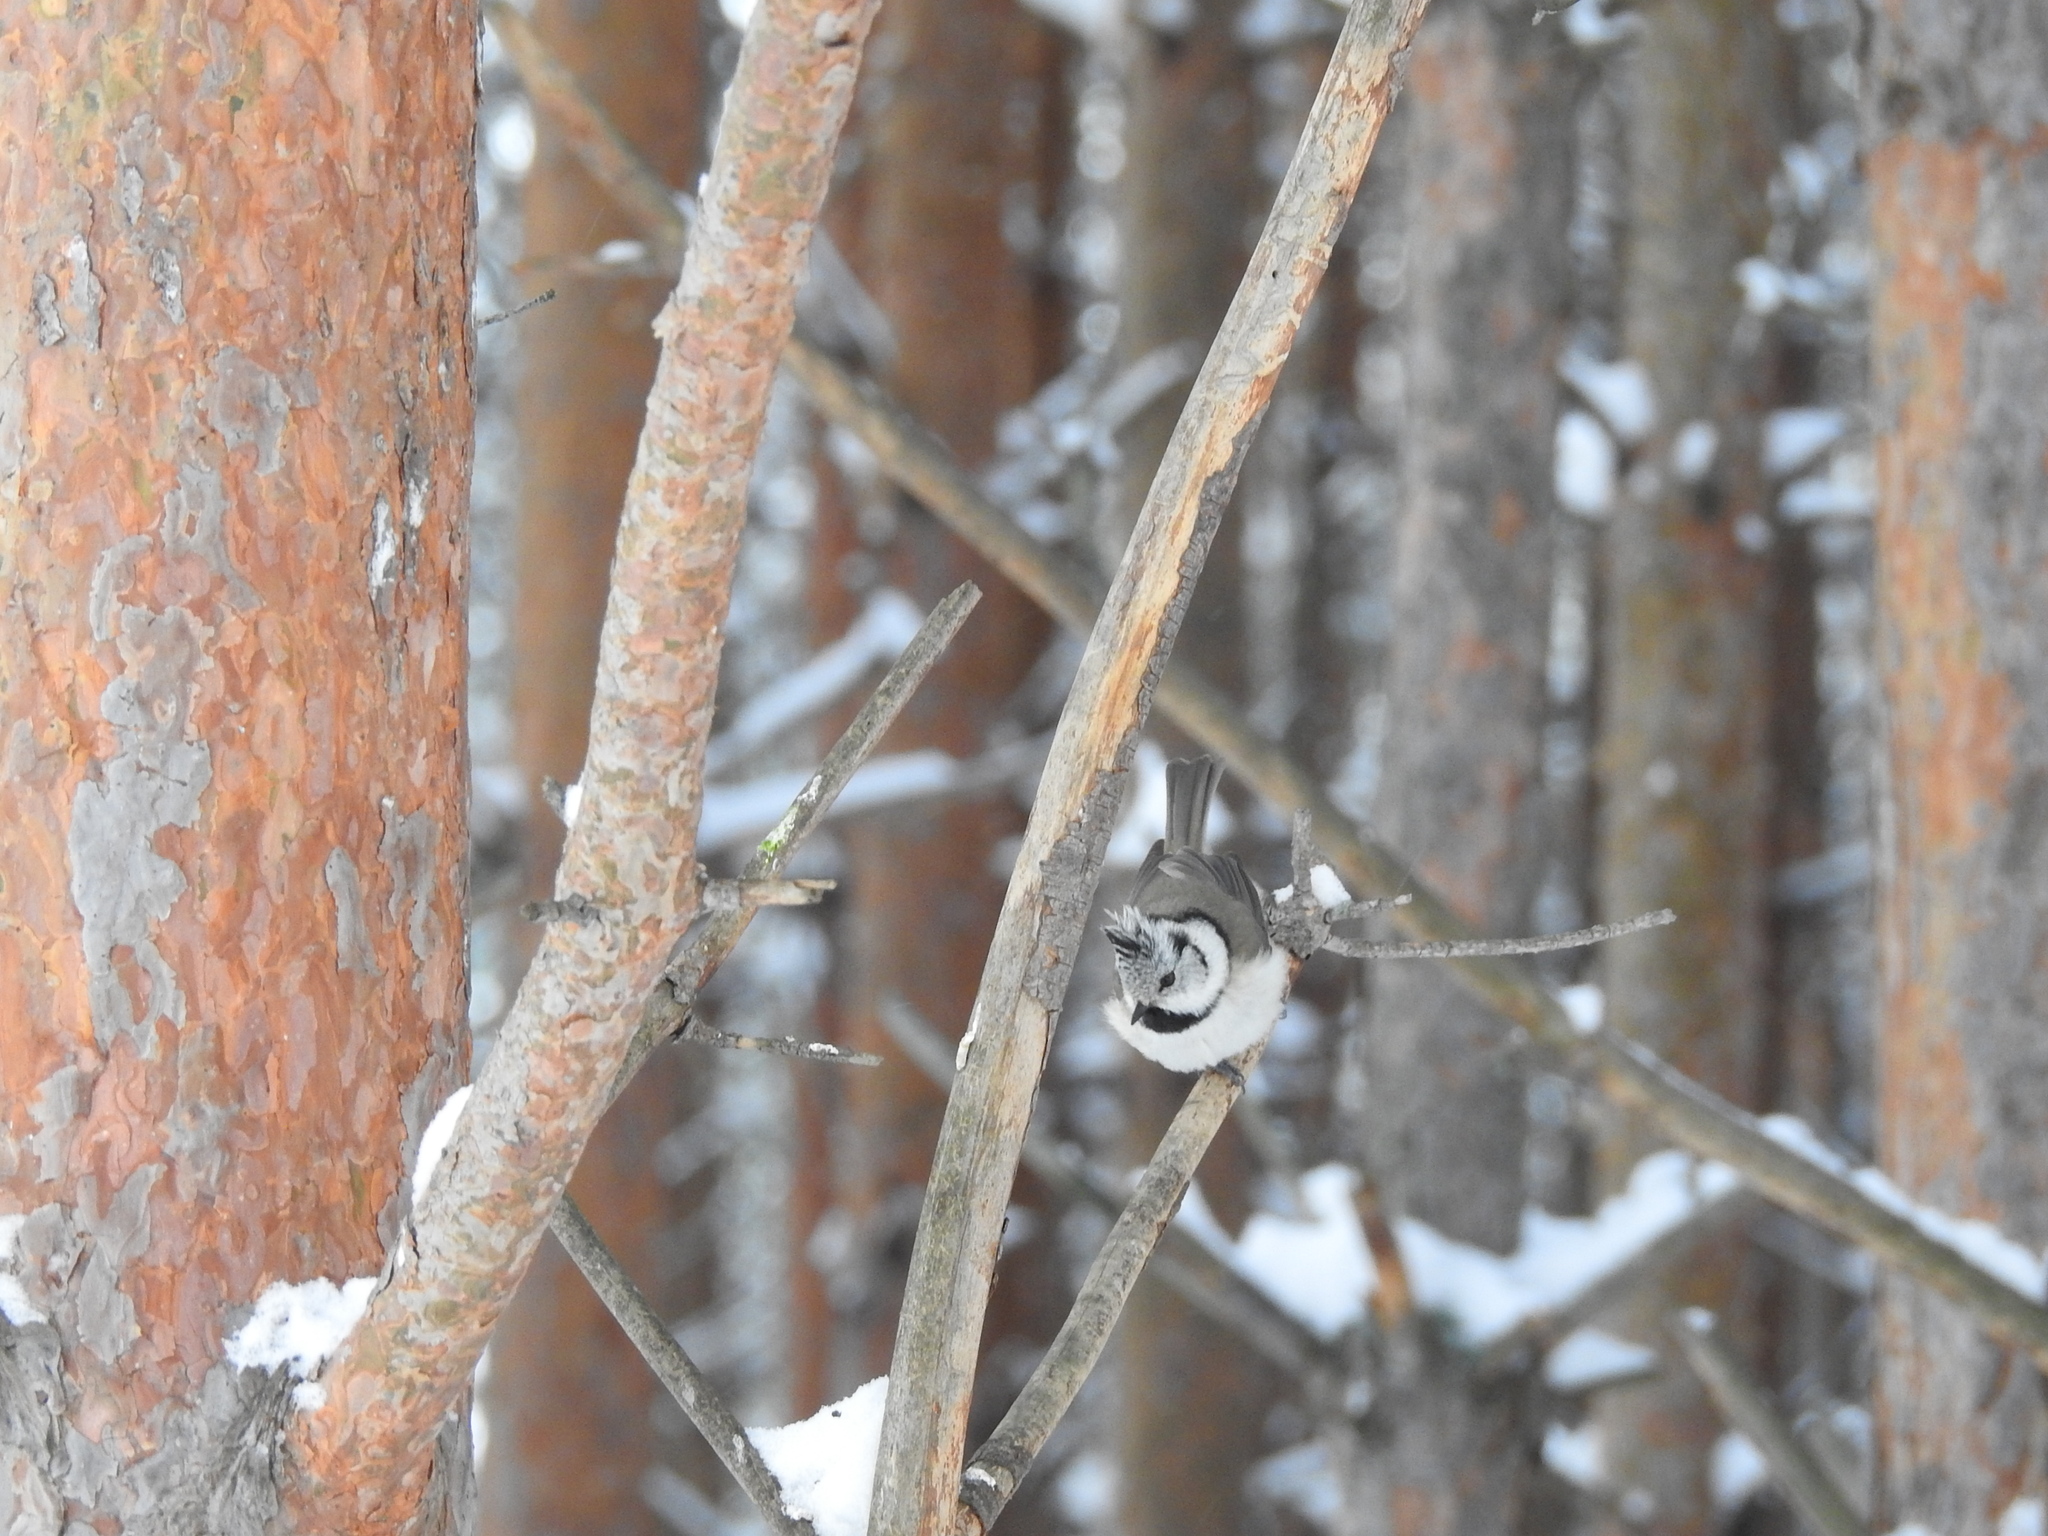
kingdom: Animalia
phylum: Chordata
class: Aves
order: Passeriformes
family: Paridae
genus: Lophophanes
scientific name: Lophophanes cristatus
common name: European crested tit
